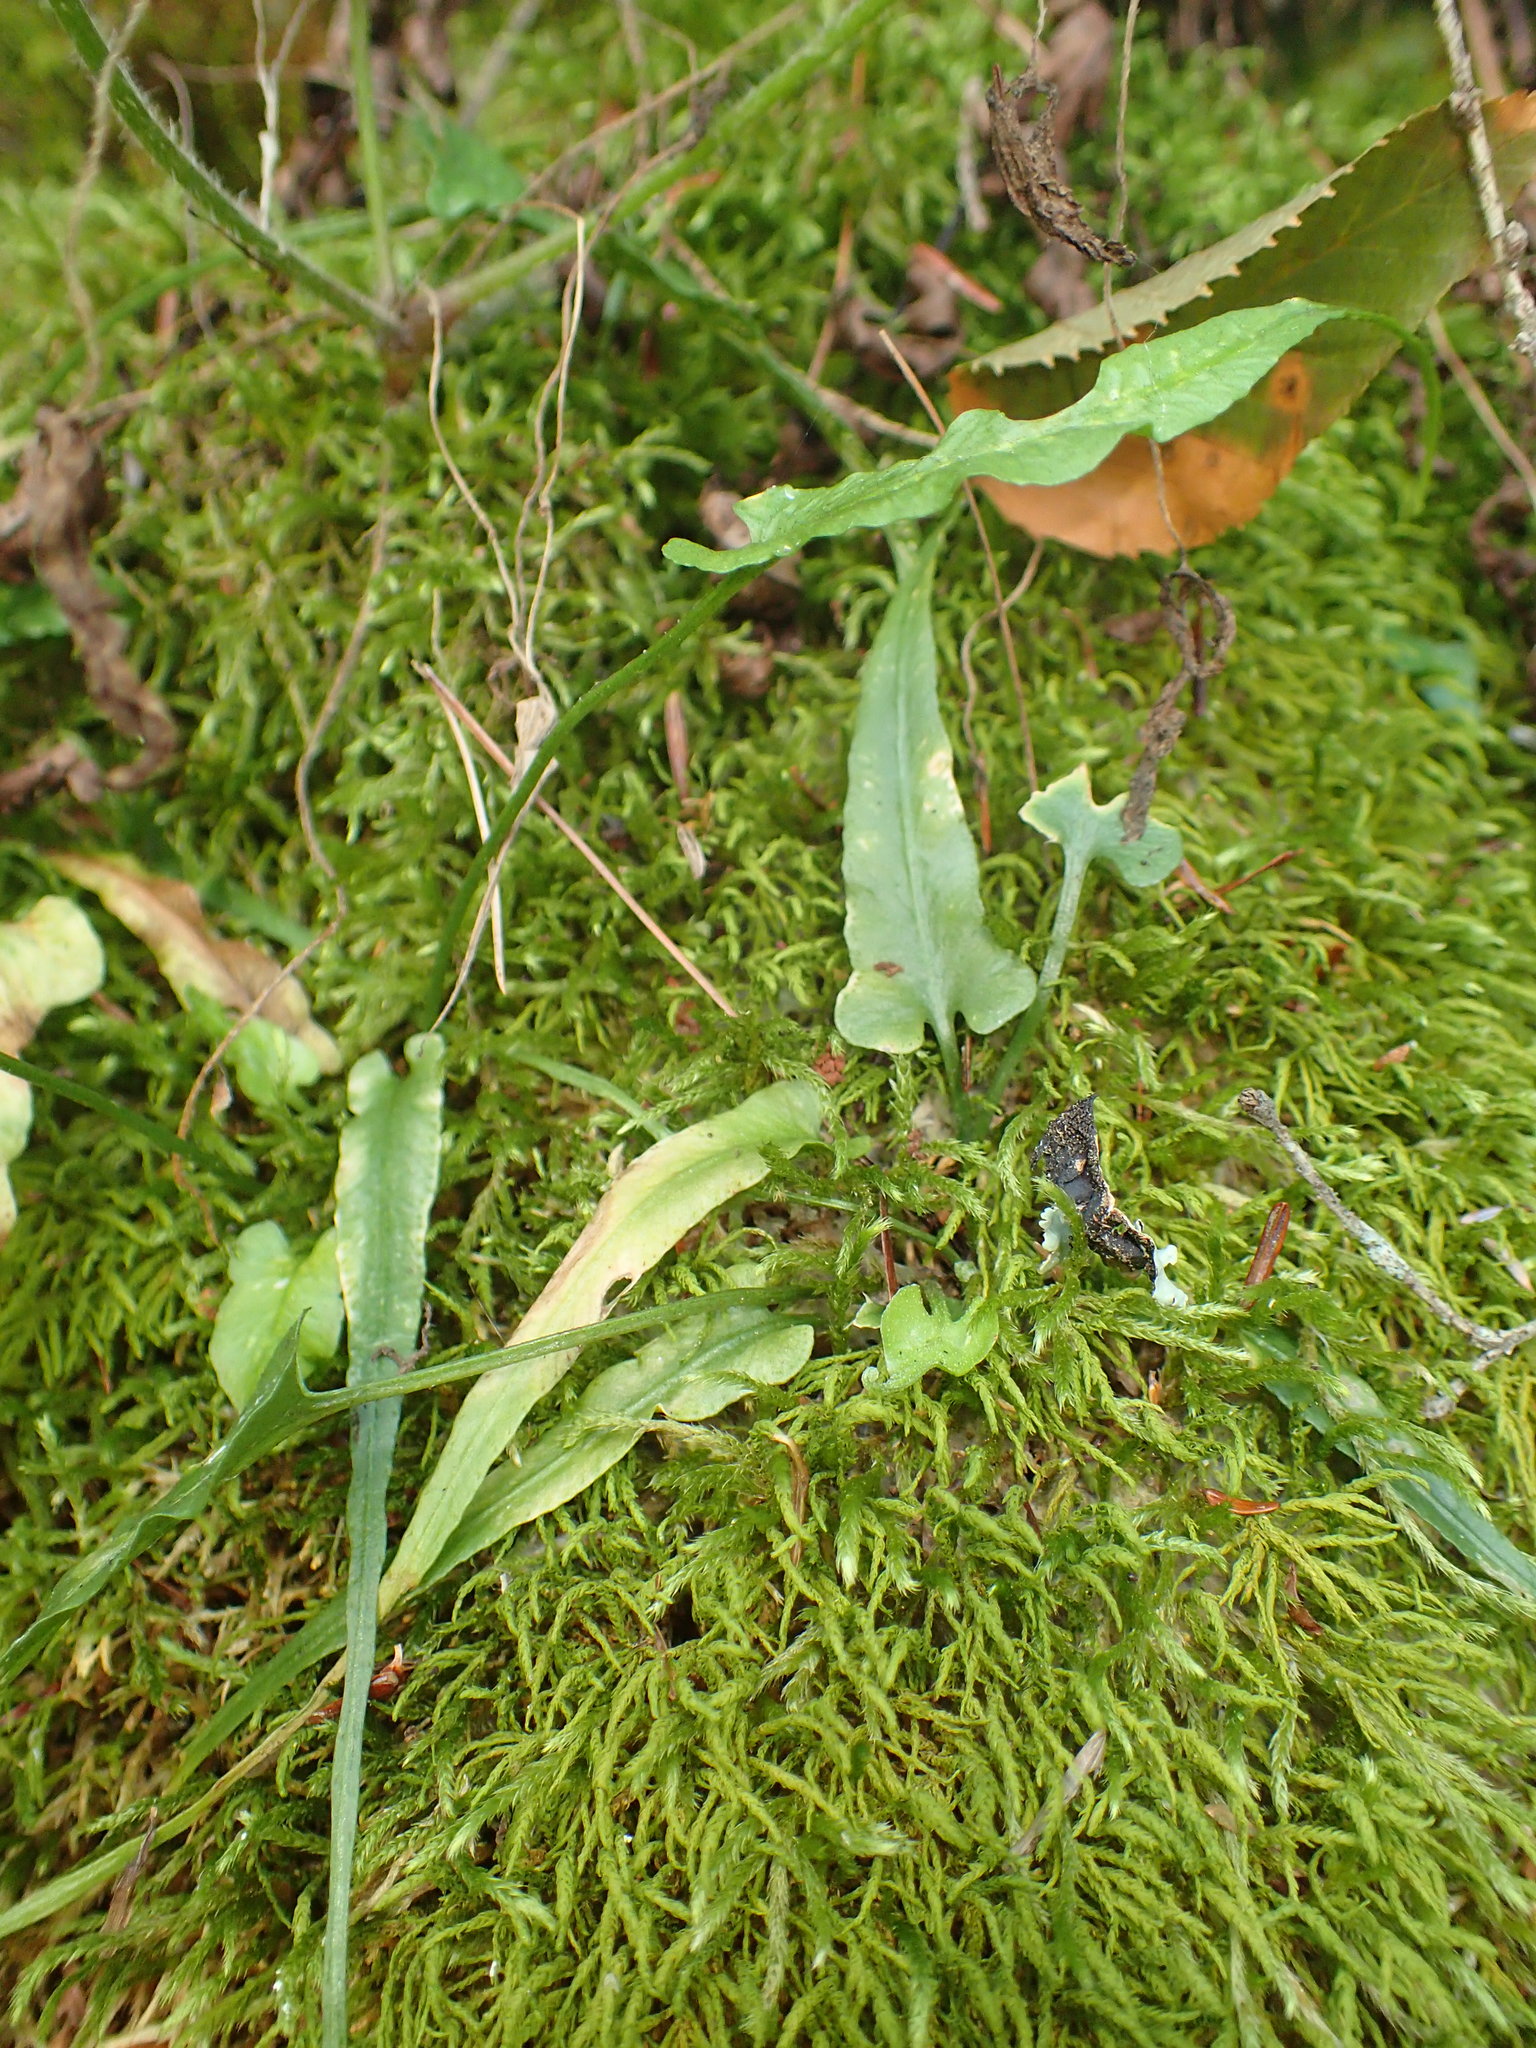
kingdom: Plantae
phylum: Tracheophyta
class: Polypodiopsida
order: Polypodiales
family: Aspleniaceae
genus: Asplenium
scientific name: Asplenium rhizophyllum
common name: Walking fern
